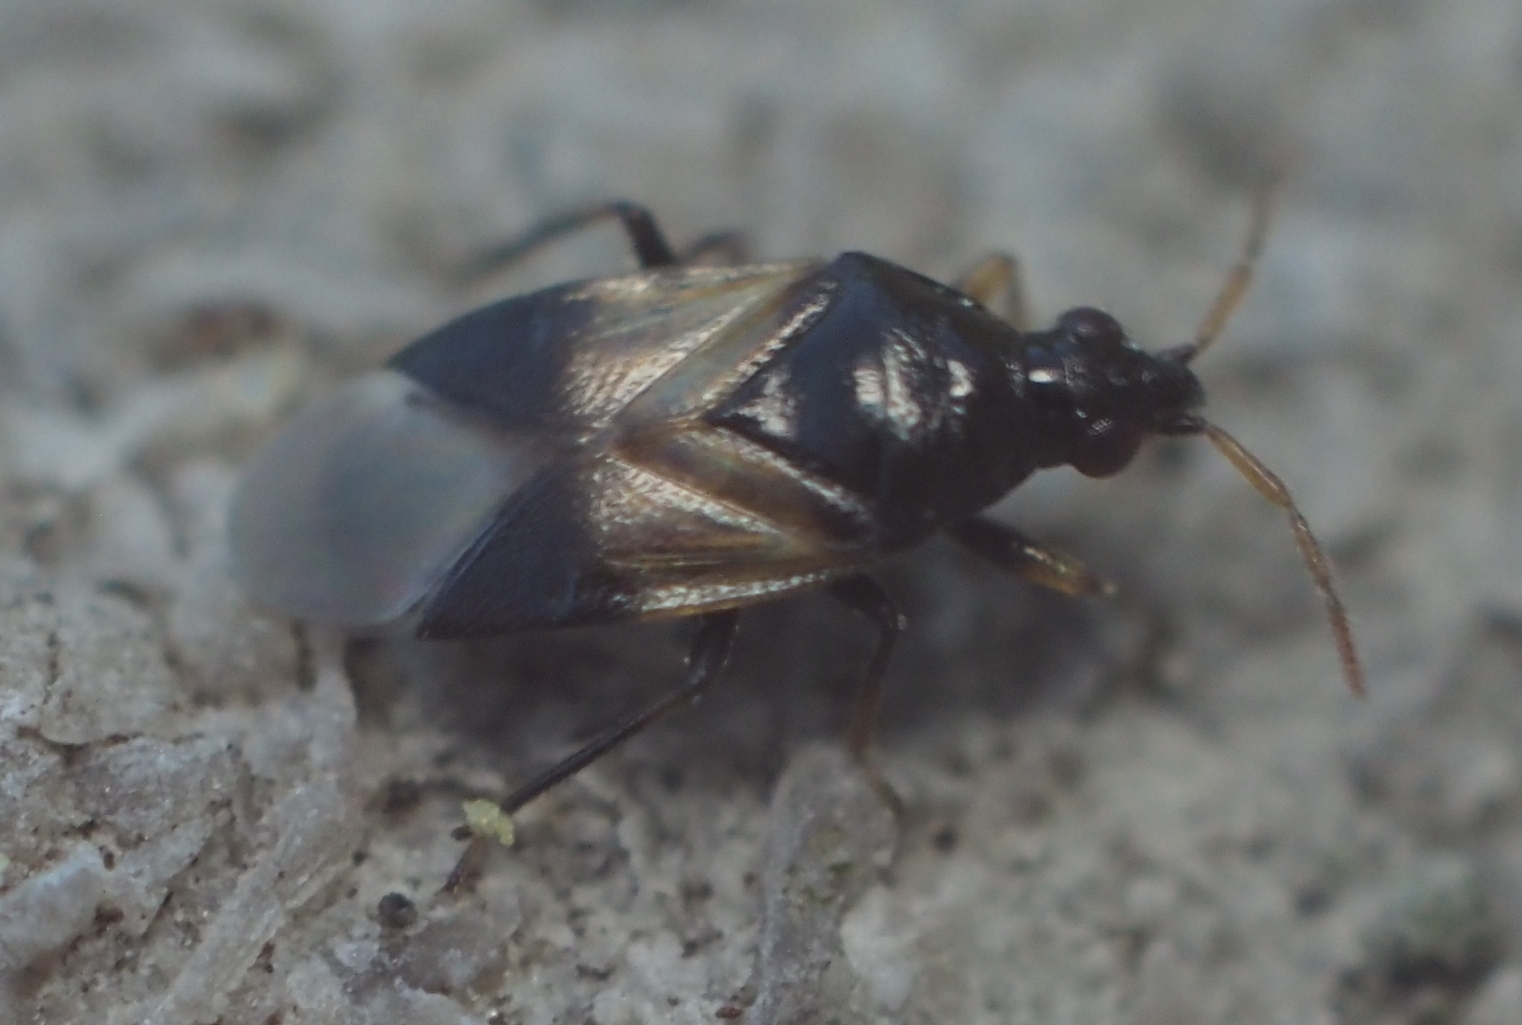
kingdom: Animalia
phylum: Arthropoda
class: Insecta
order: Hemiptera
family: Anthocoridae
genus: Orius
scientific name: Orius insidiosus
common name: Insidious flower bug
